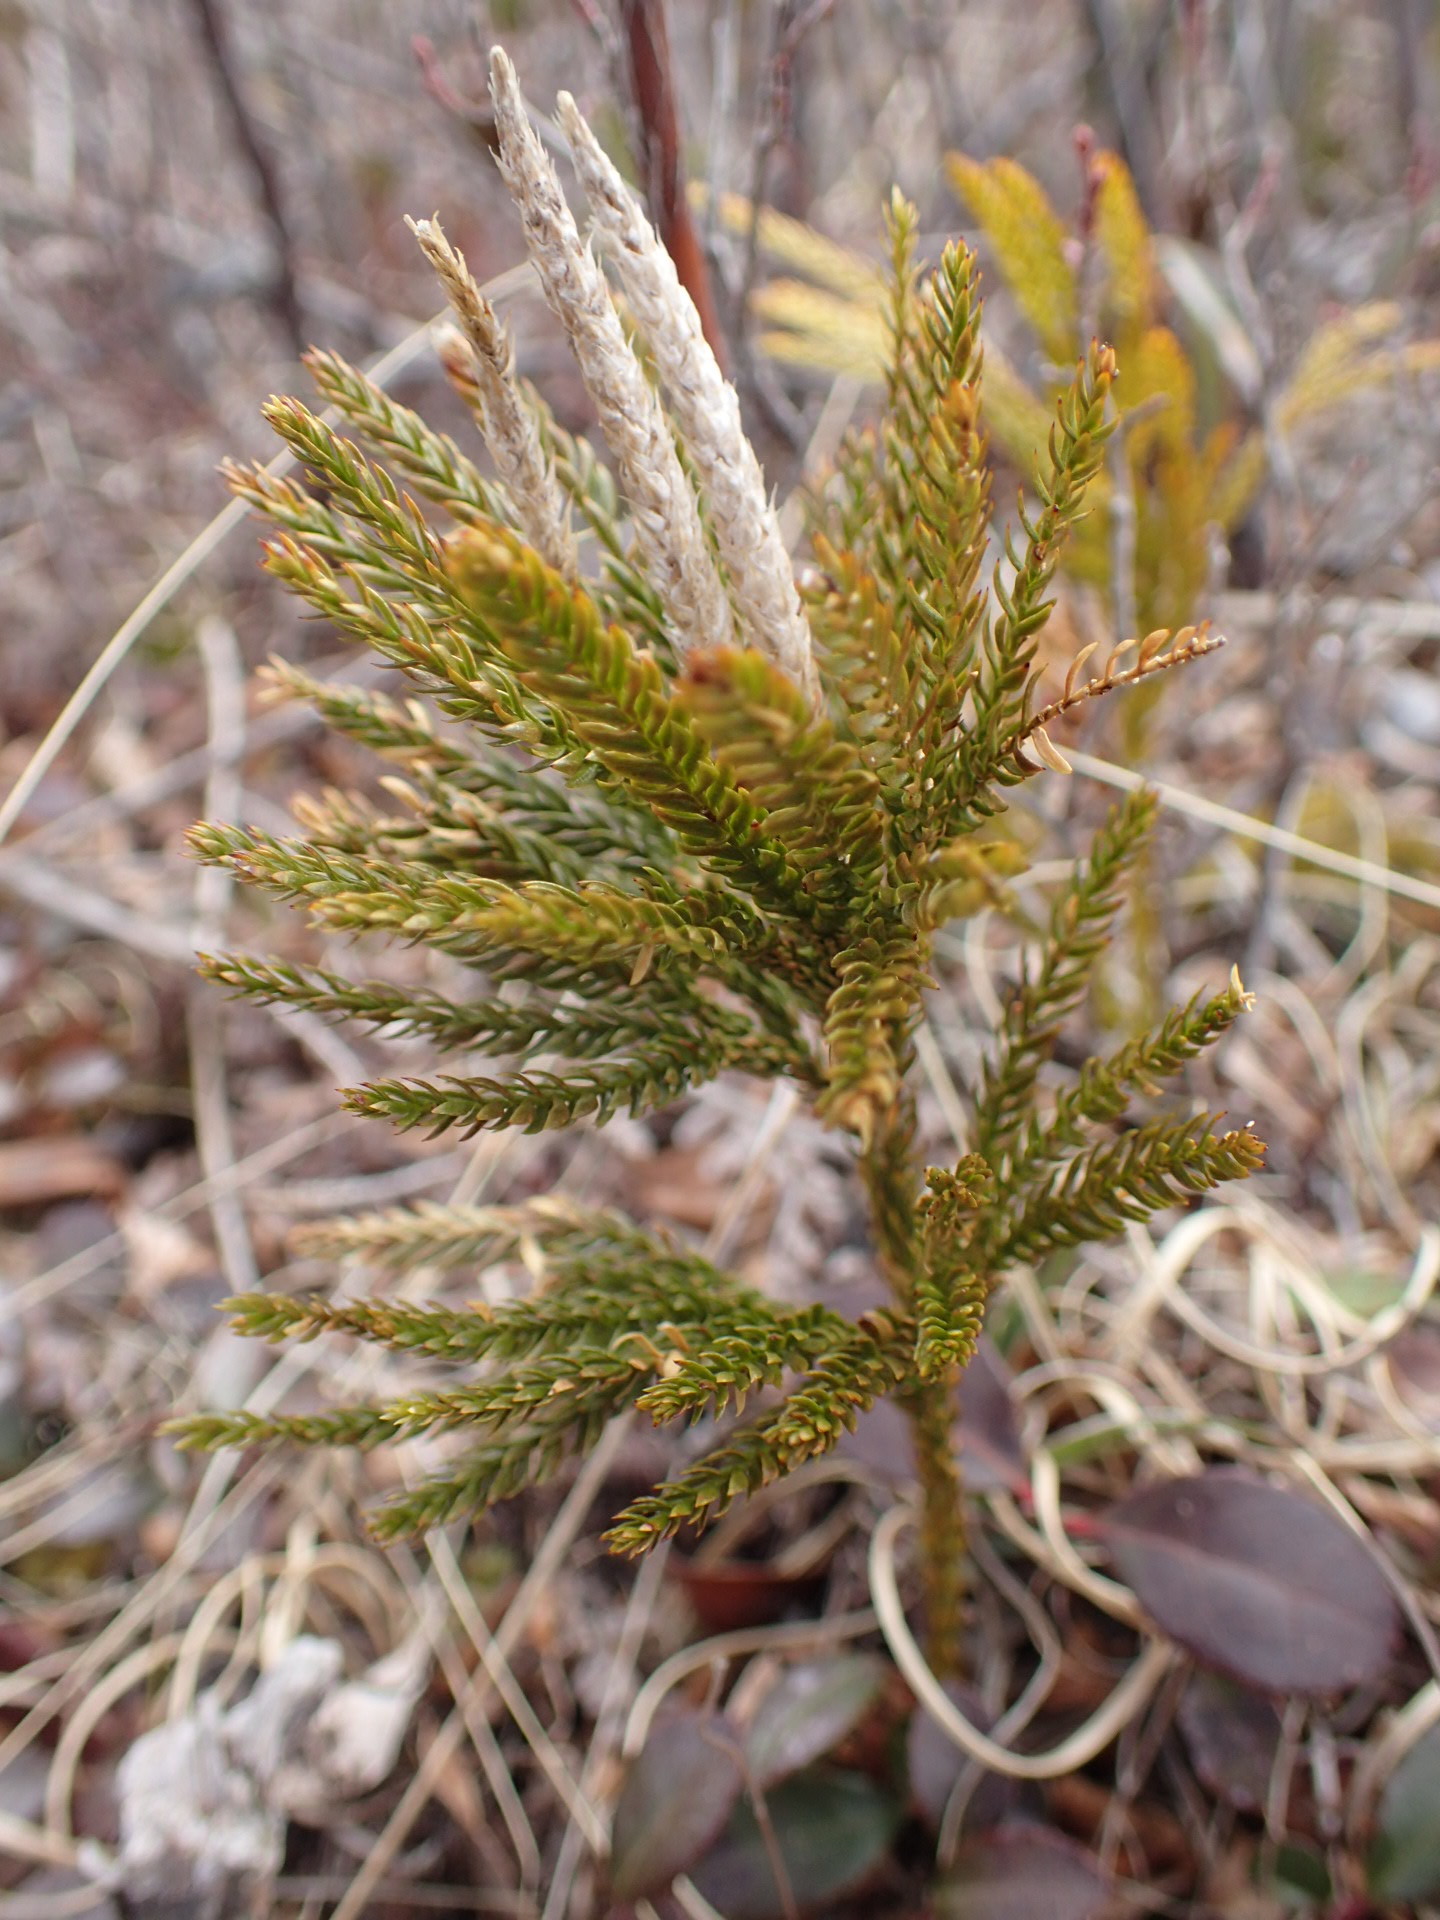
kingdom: Plantae
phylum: Tracheophyta
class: Lycopodiopsida
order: Lycopodiales
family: Lycopodiaceae
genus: Dendrolycopodium
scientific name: Dendrolycopodium hickeyi
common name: Hickey's clubmoss
